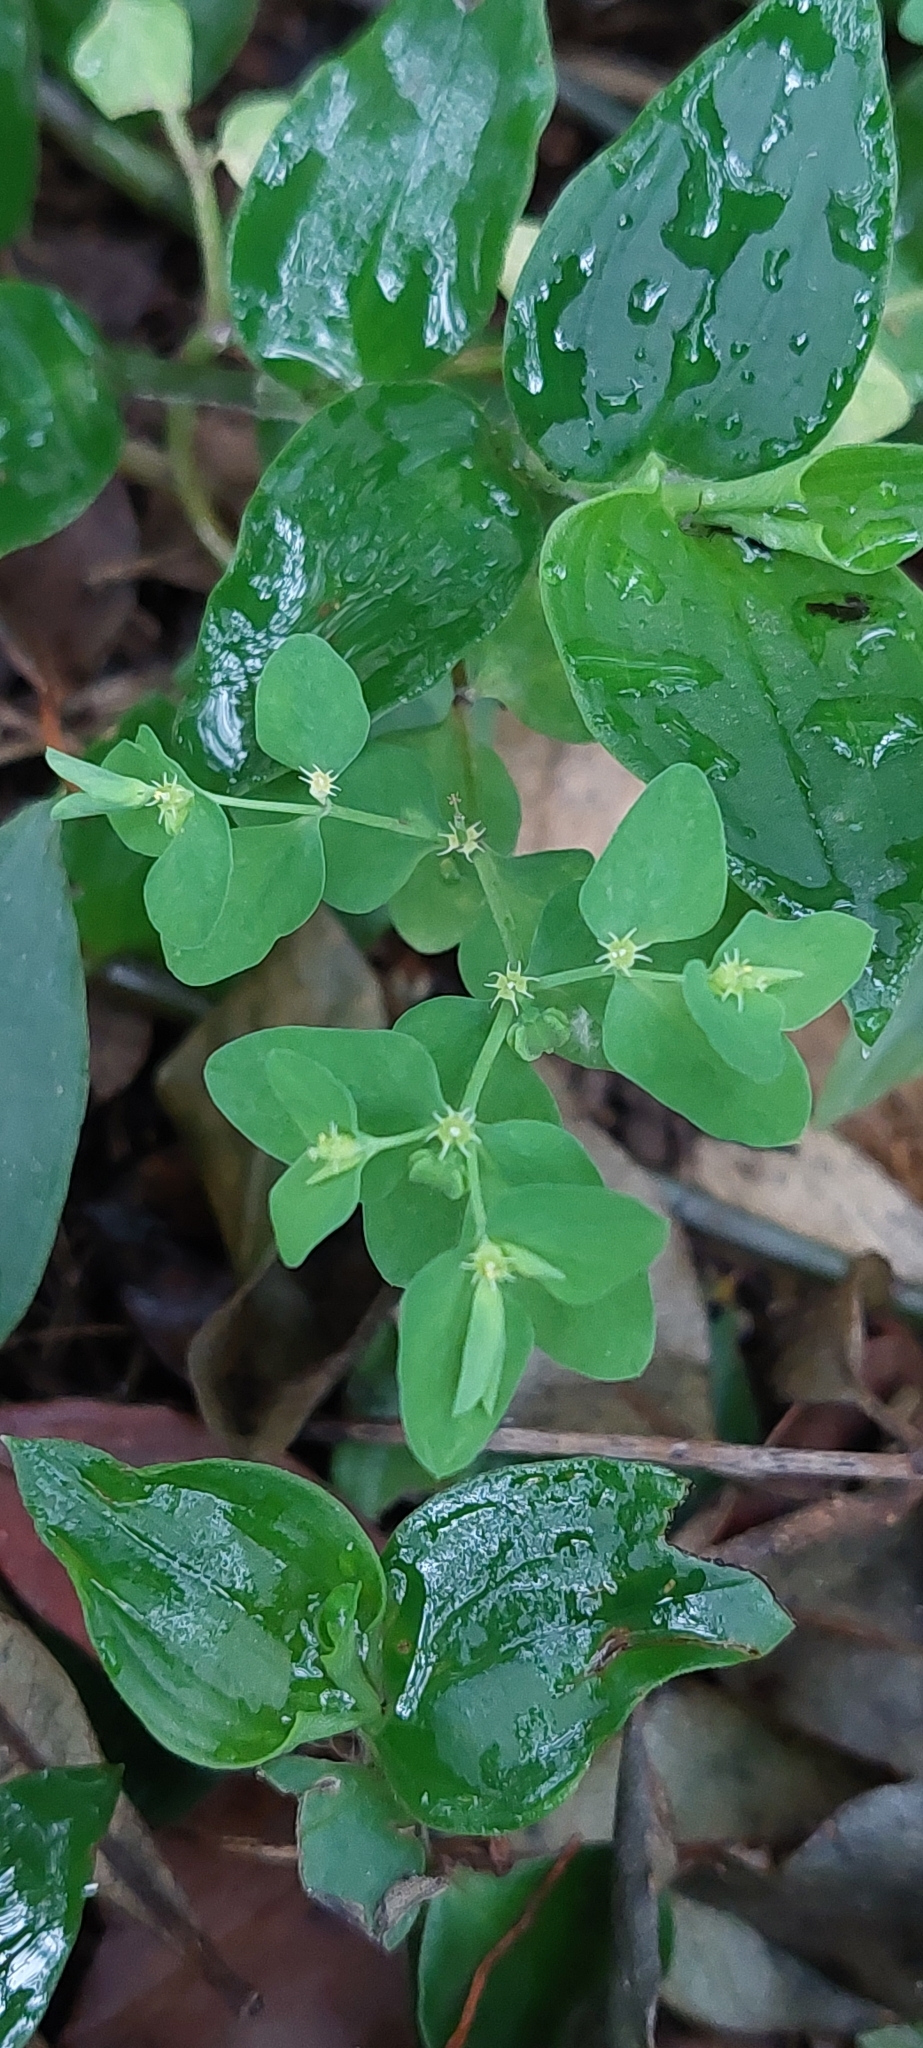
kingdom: Plantae
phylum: Tracheophyta
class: Magnoliopsida
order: Malpighiales
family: Euphorbiaceae
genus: Euphorbia
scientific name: Euphorbia peplus
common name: Petty spurge
